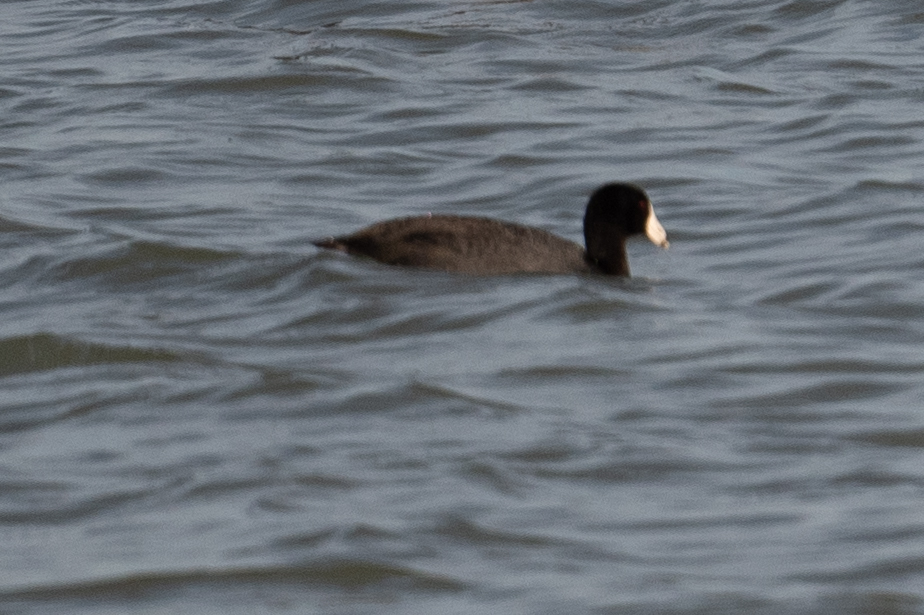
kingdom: Animalia
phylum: Chordata
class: Aves
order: Gruiformes
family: Rallidae
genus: Fulica
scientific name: Fulica americana
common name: American coot
